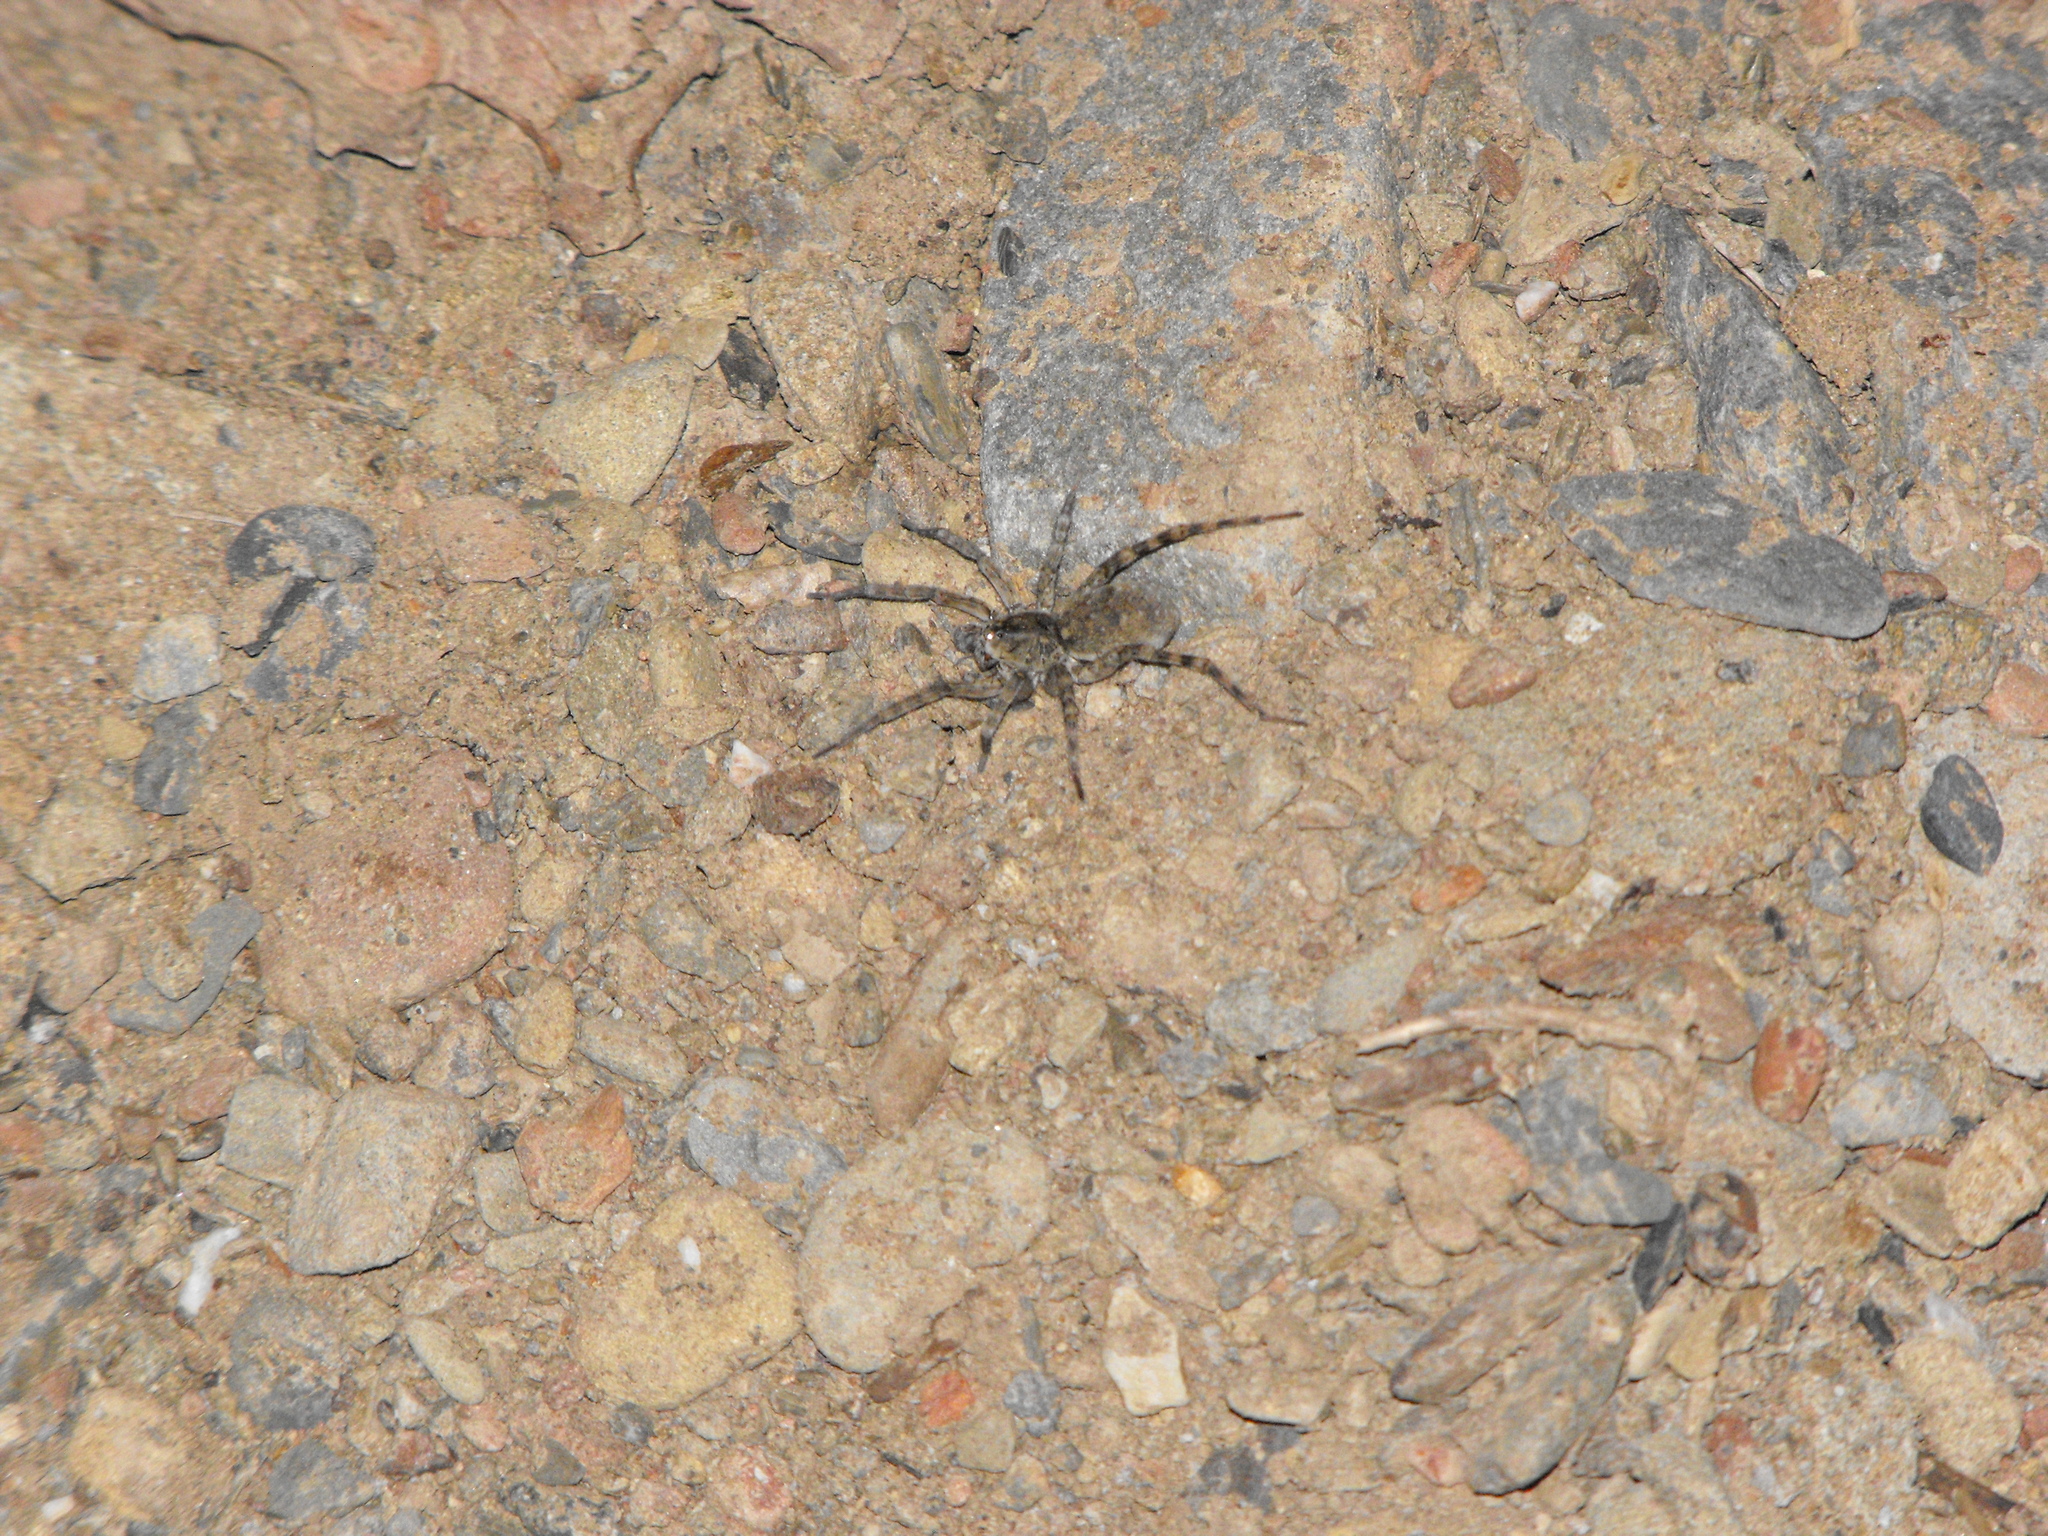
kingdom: Animalia
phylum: Arthropoda
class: Arachnida
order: Araneae
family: Lycosidae
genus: Arctosa
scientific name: Arctosa littoralis
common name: Wolf spiders
